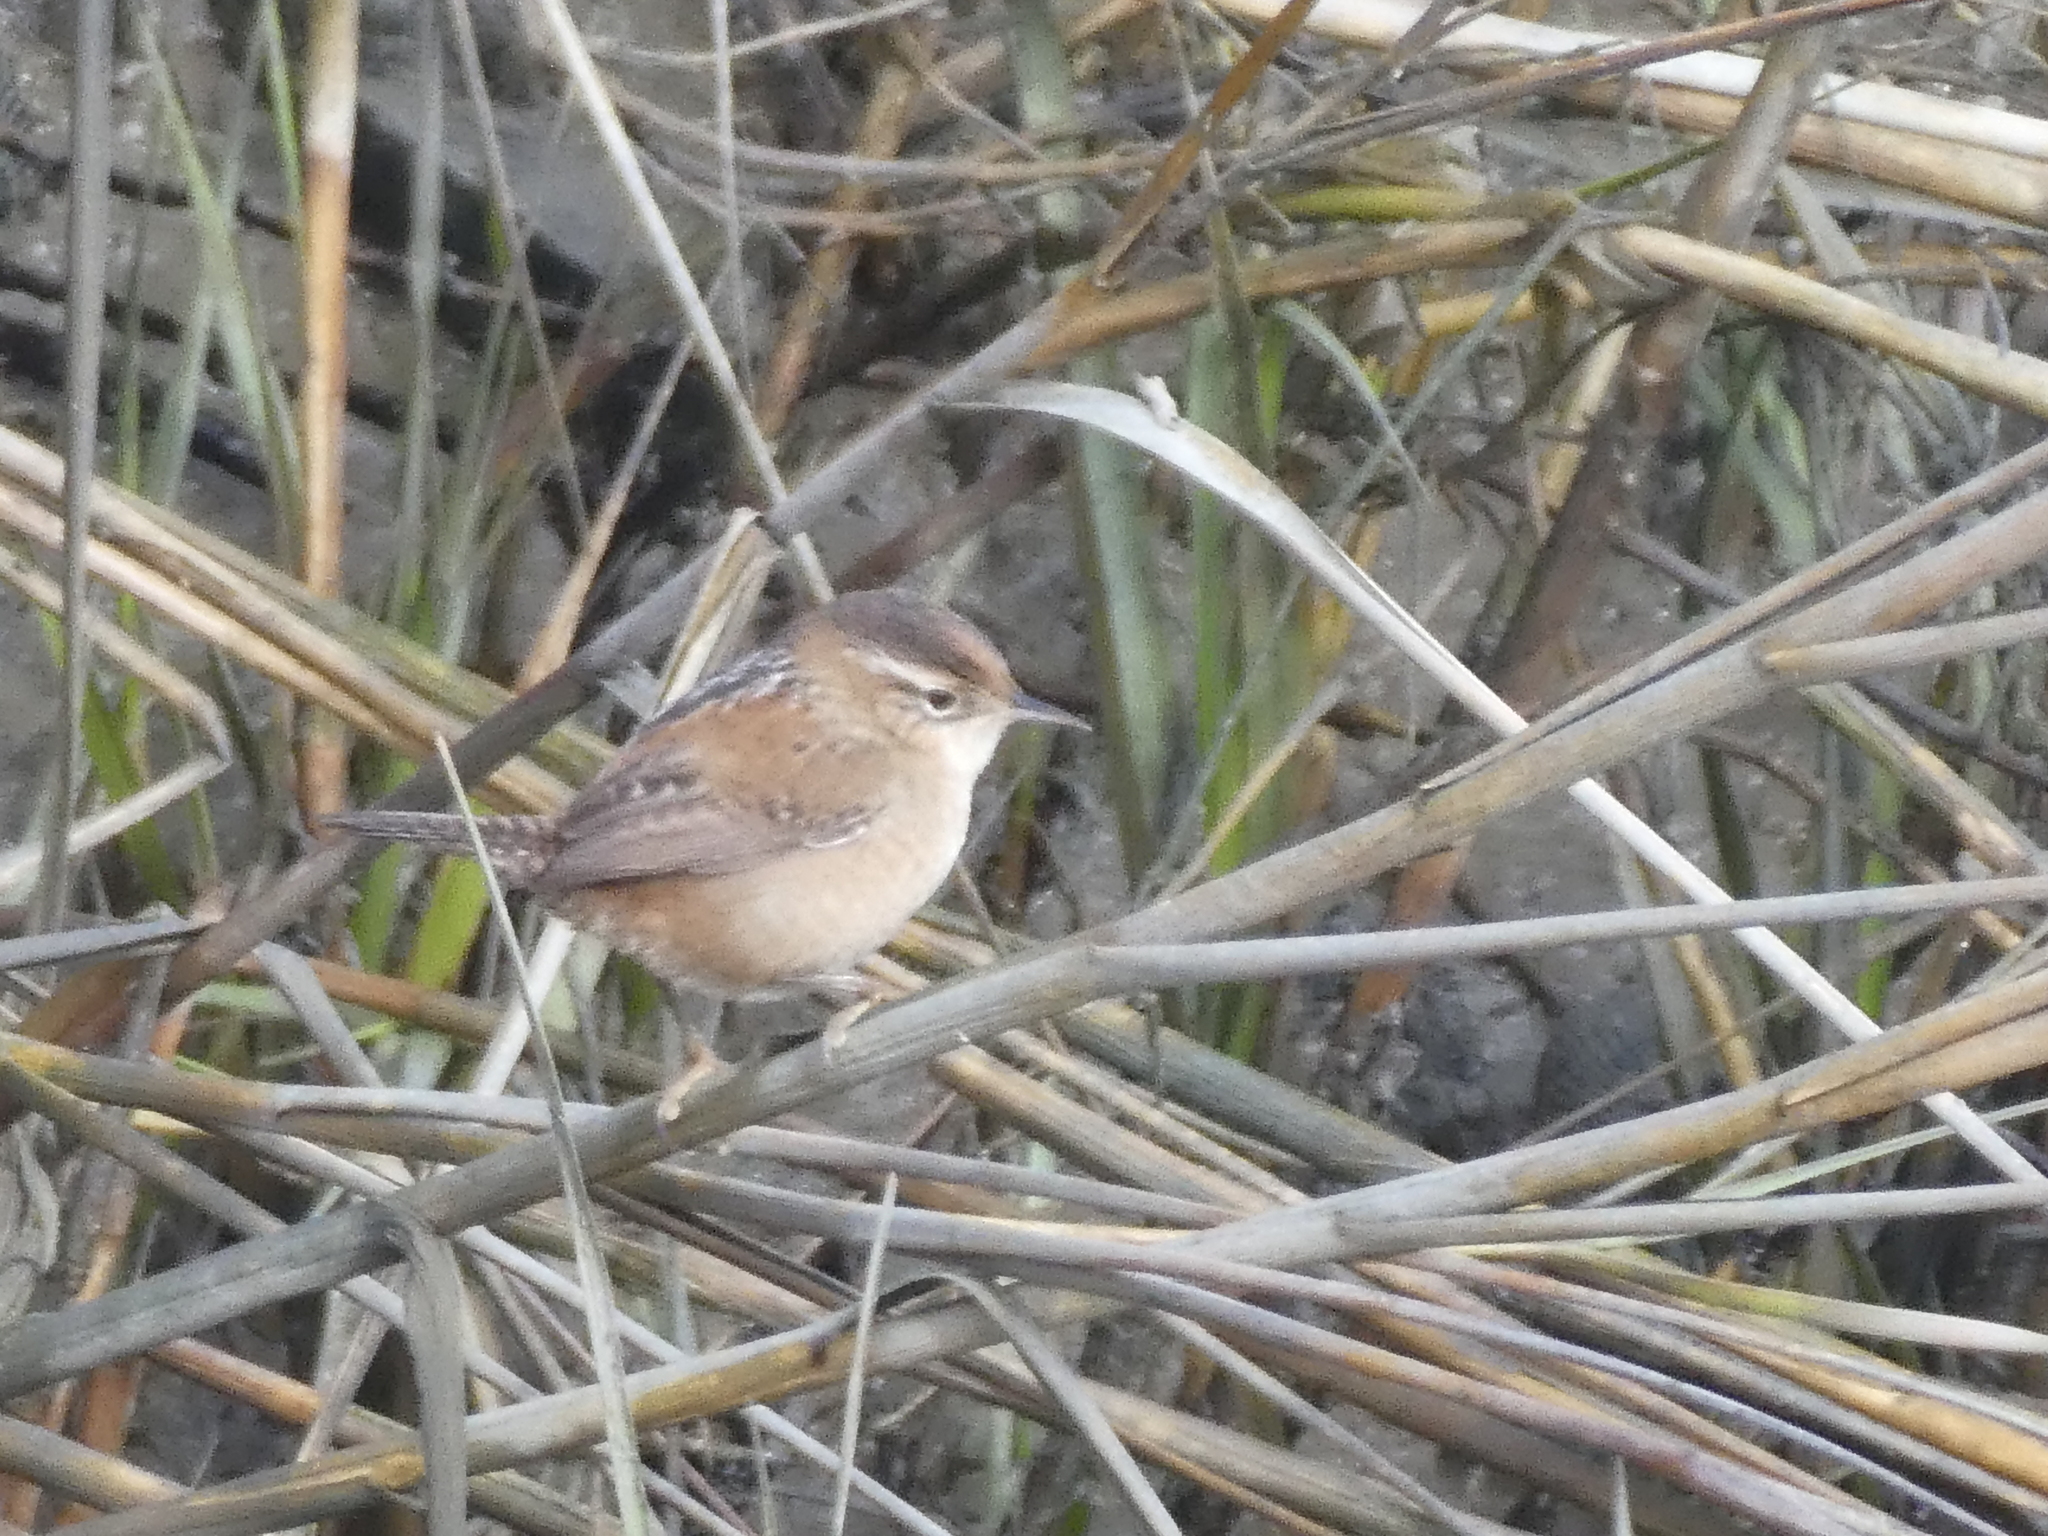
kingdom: Animalia
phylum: Chordata
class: Aves
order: Passeriformes
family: Troglodytidae
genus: Cistothorus
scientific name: Cistothorus palustris
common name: Marsh wren
